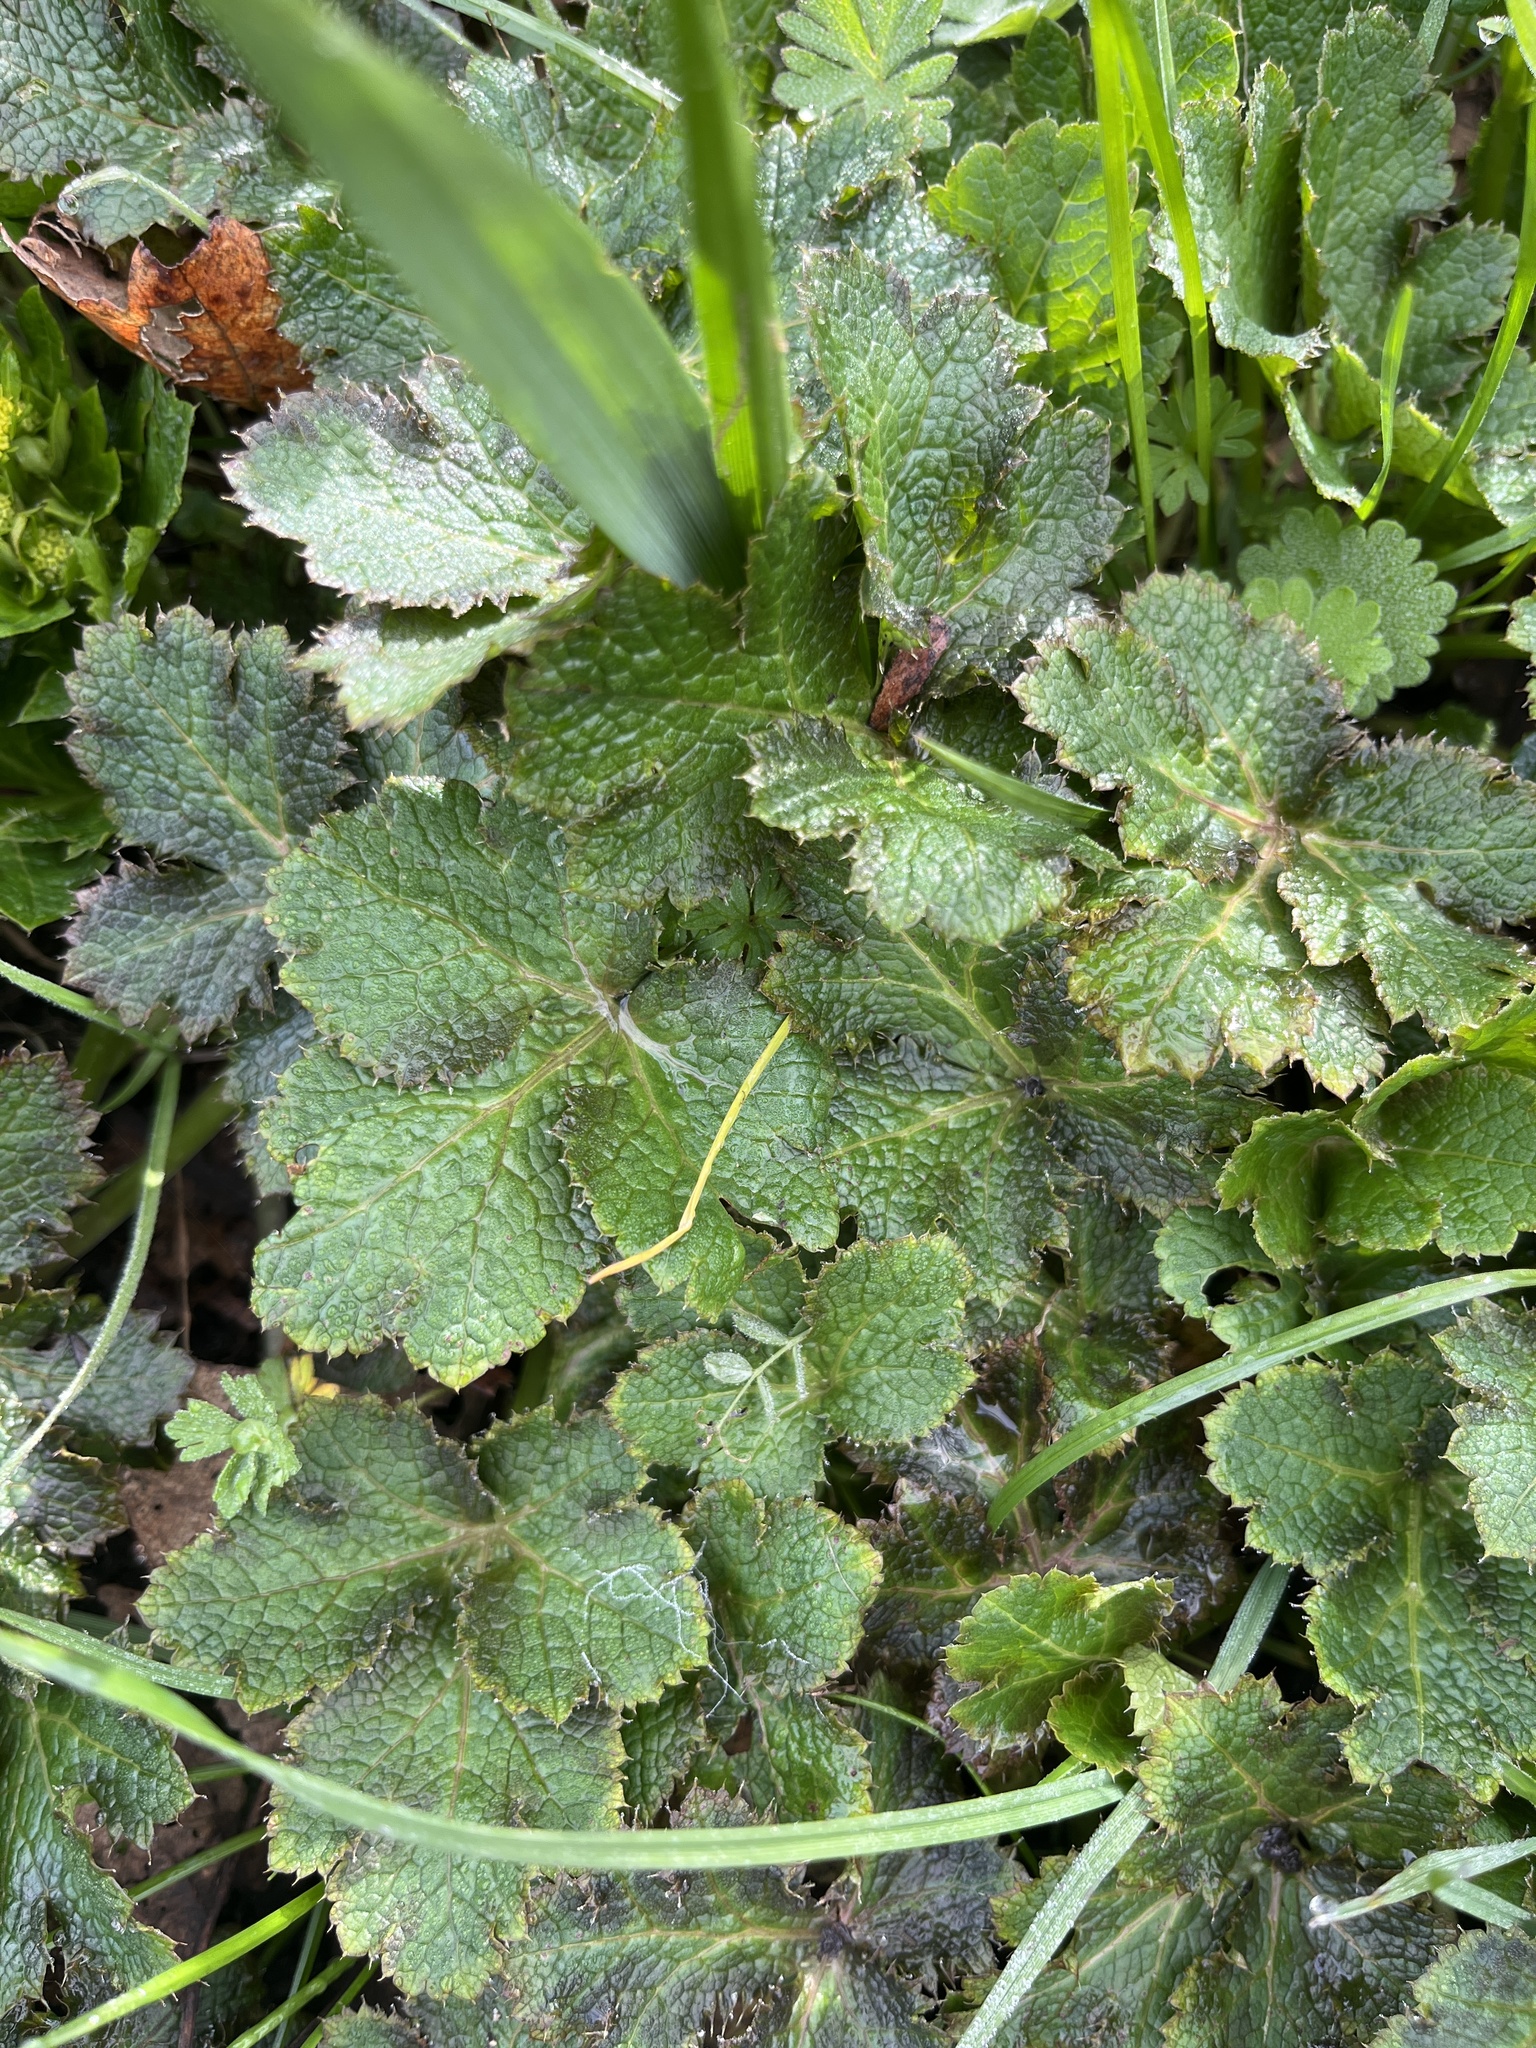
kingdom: Plantae
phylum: Tracheophyta
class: Magnoliopsida
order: Apiales
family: Apiaceae
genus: Sanicula
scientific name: Sanicula crassicaulis
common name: Western snakeroot
